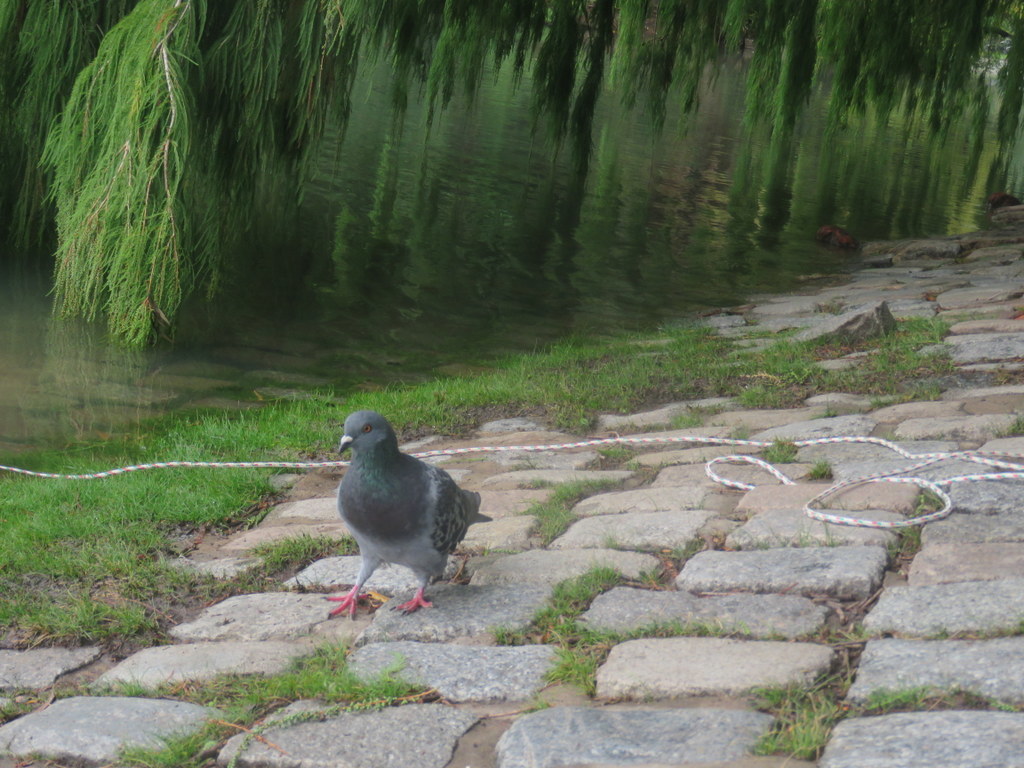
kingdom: Animalia
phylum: Chordata
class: Aves
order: Columbiformes
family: Columbidae
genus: Columba
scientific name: Columba livia
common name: Rock pigeon
